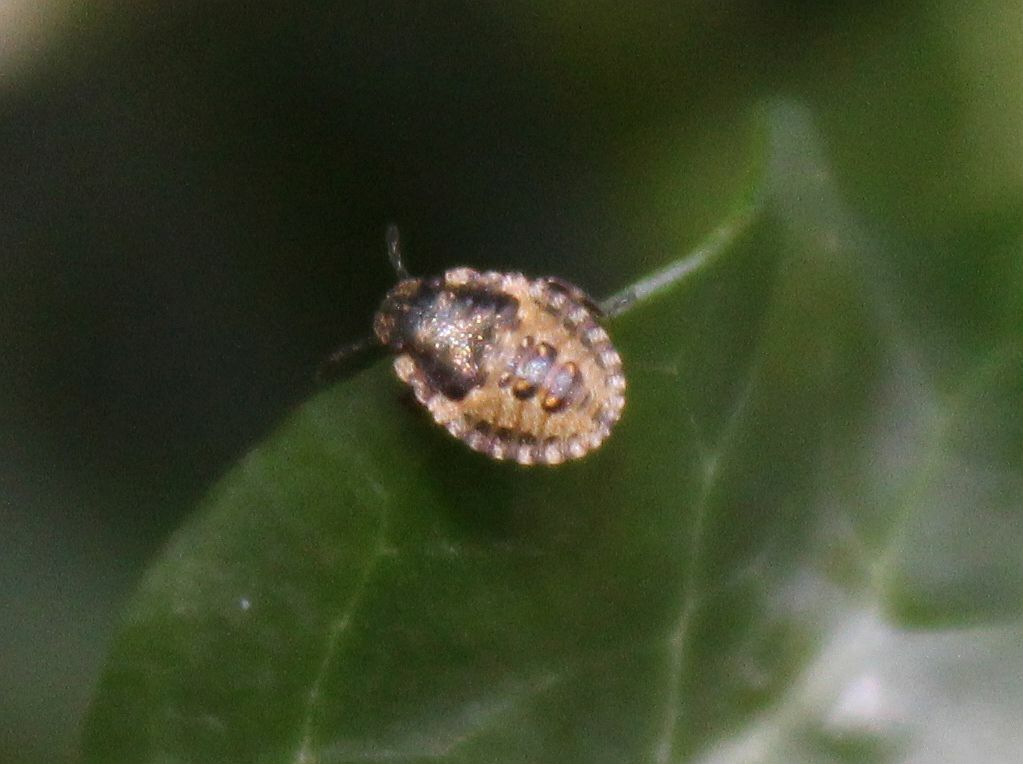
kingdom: Animalia
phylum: Arthropoda
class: Insecta
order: Hemiptera
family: Pentatomidae
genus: Pentatoma
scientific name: Pentatoma rufipes
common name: Forest bug
